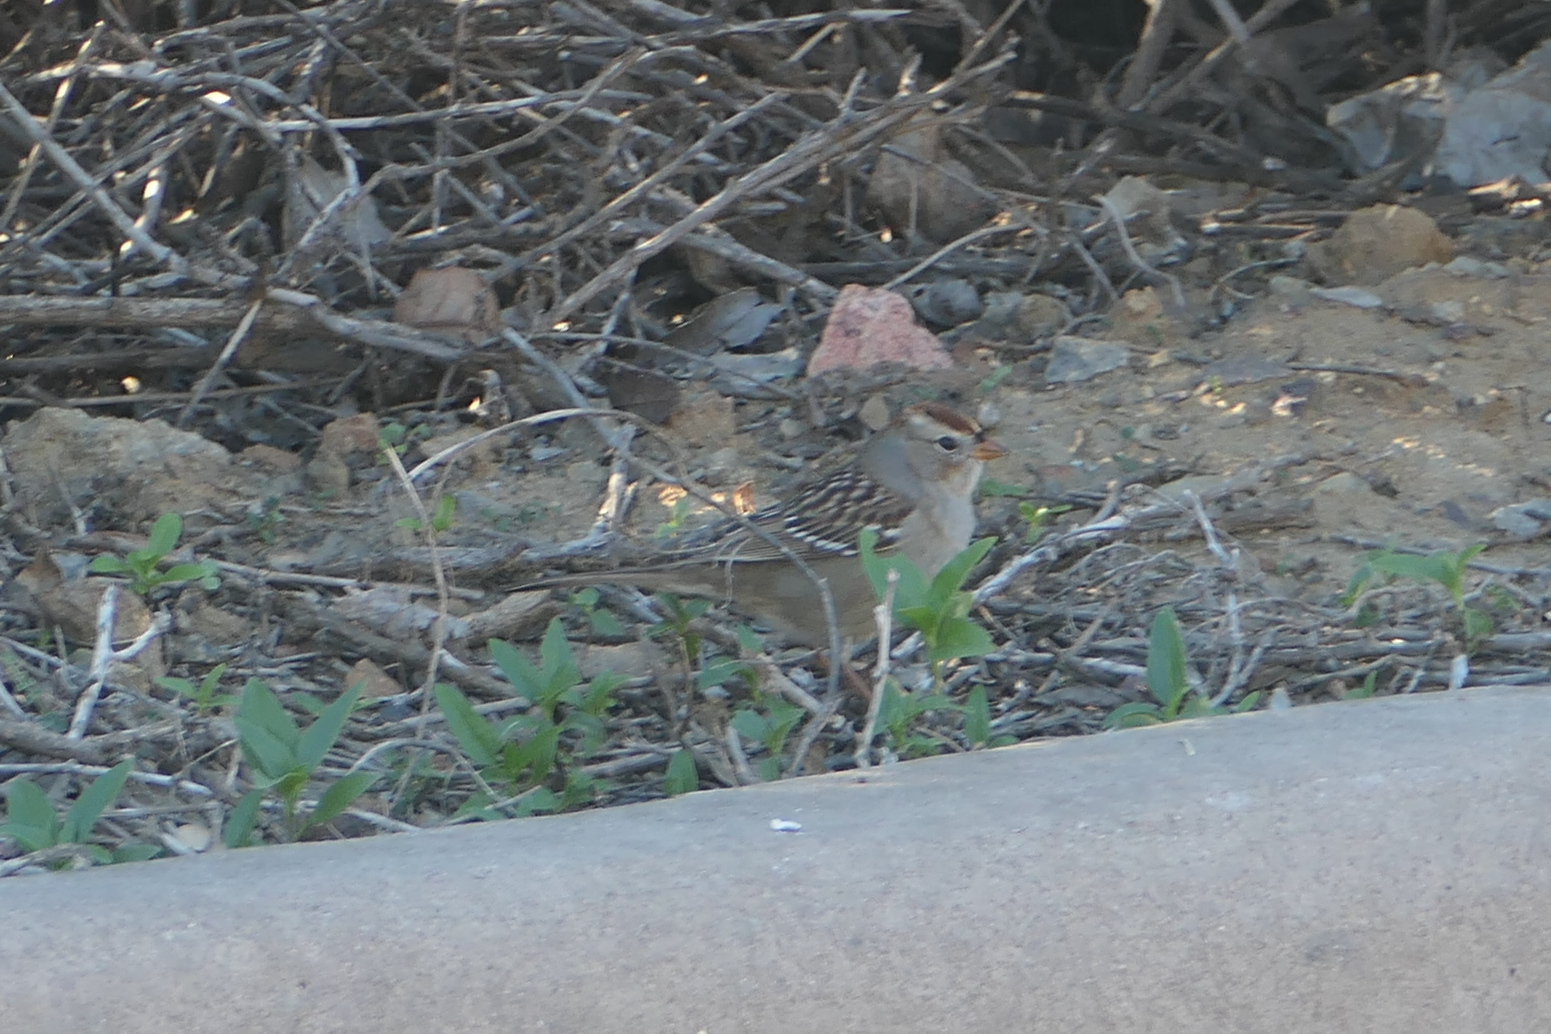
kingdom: Animalia
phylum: Chordata
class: Aves
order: Passeriformes
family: Passerellidae
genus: Zonotrichia
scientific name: Zonotrichia leucophrys
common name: White-crowned sparrow
